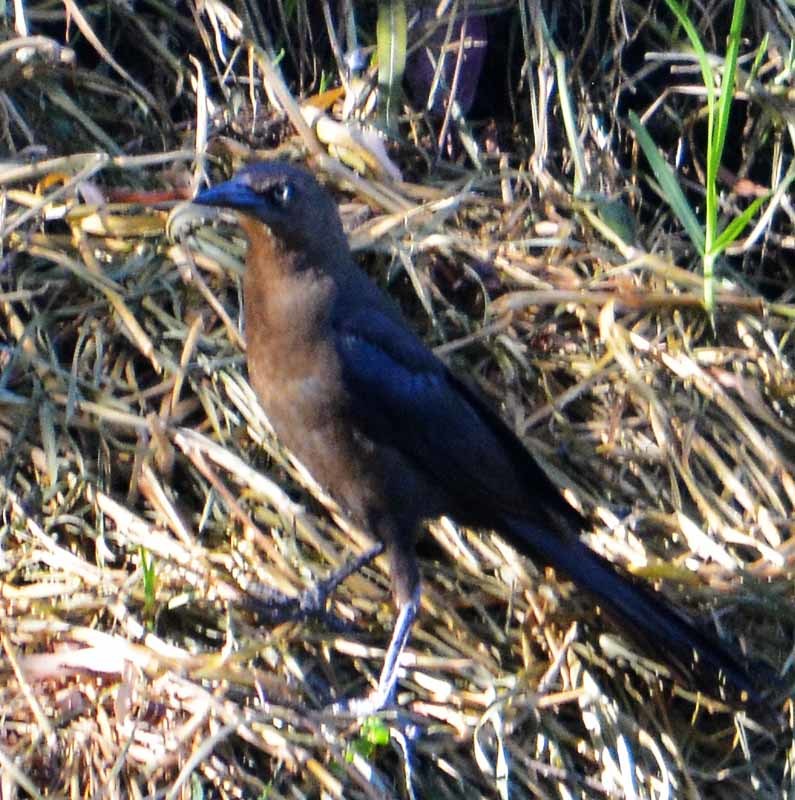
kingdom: Animalia
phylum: Chordata
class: Aves
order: Passeriformes
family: Icteridae
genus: Quiscalus
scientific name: Quiscalus mexicanus
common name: Great-tailed grackle
